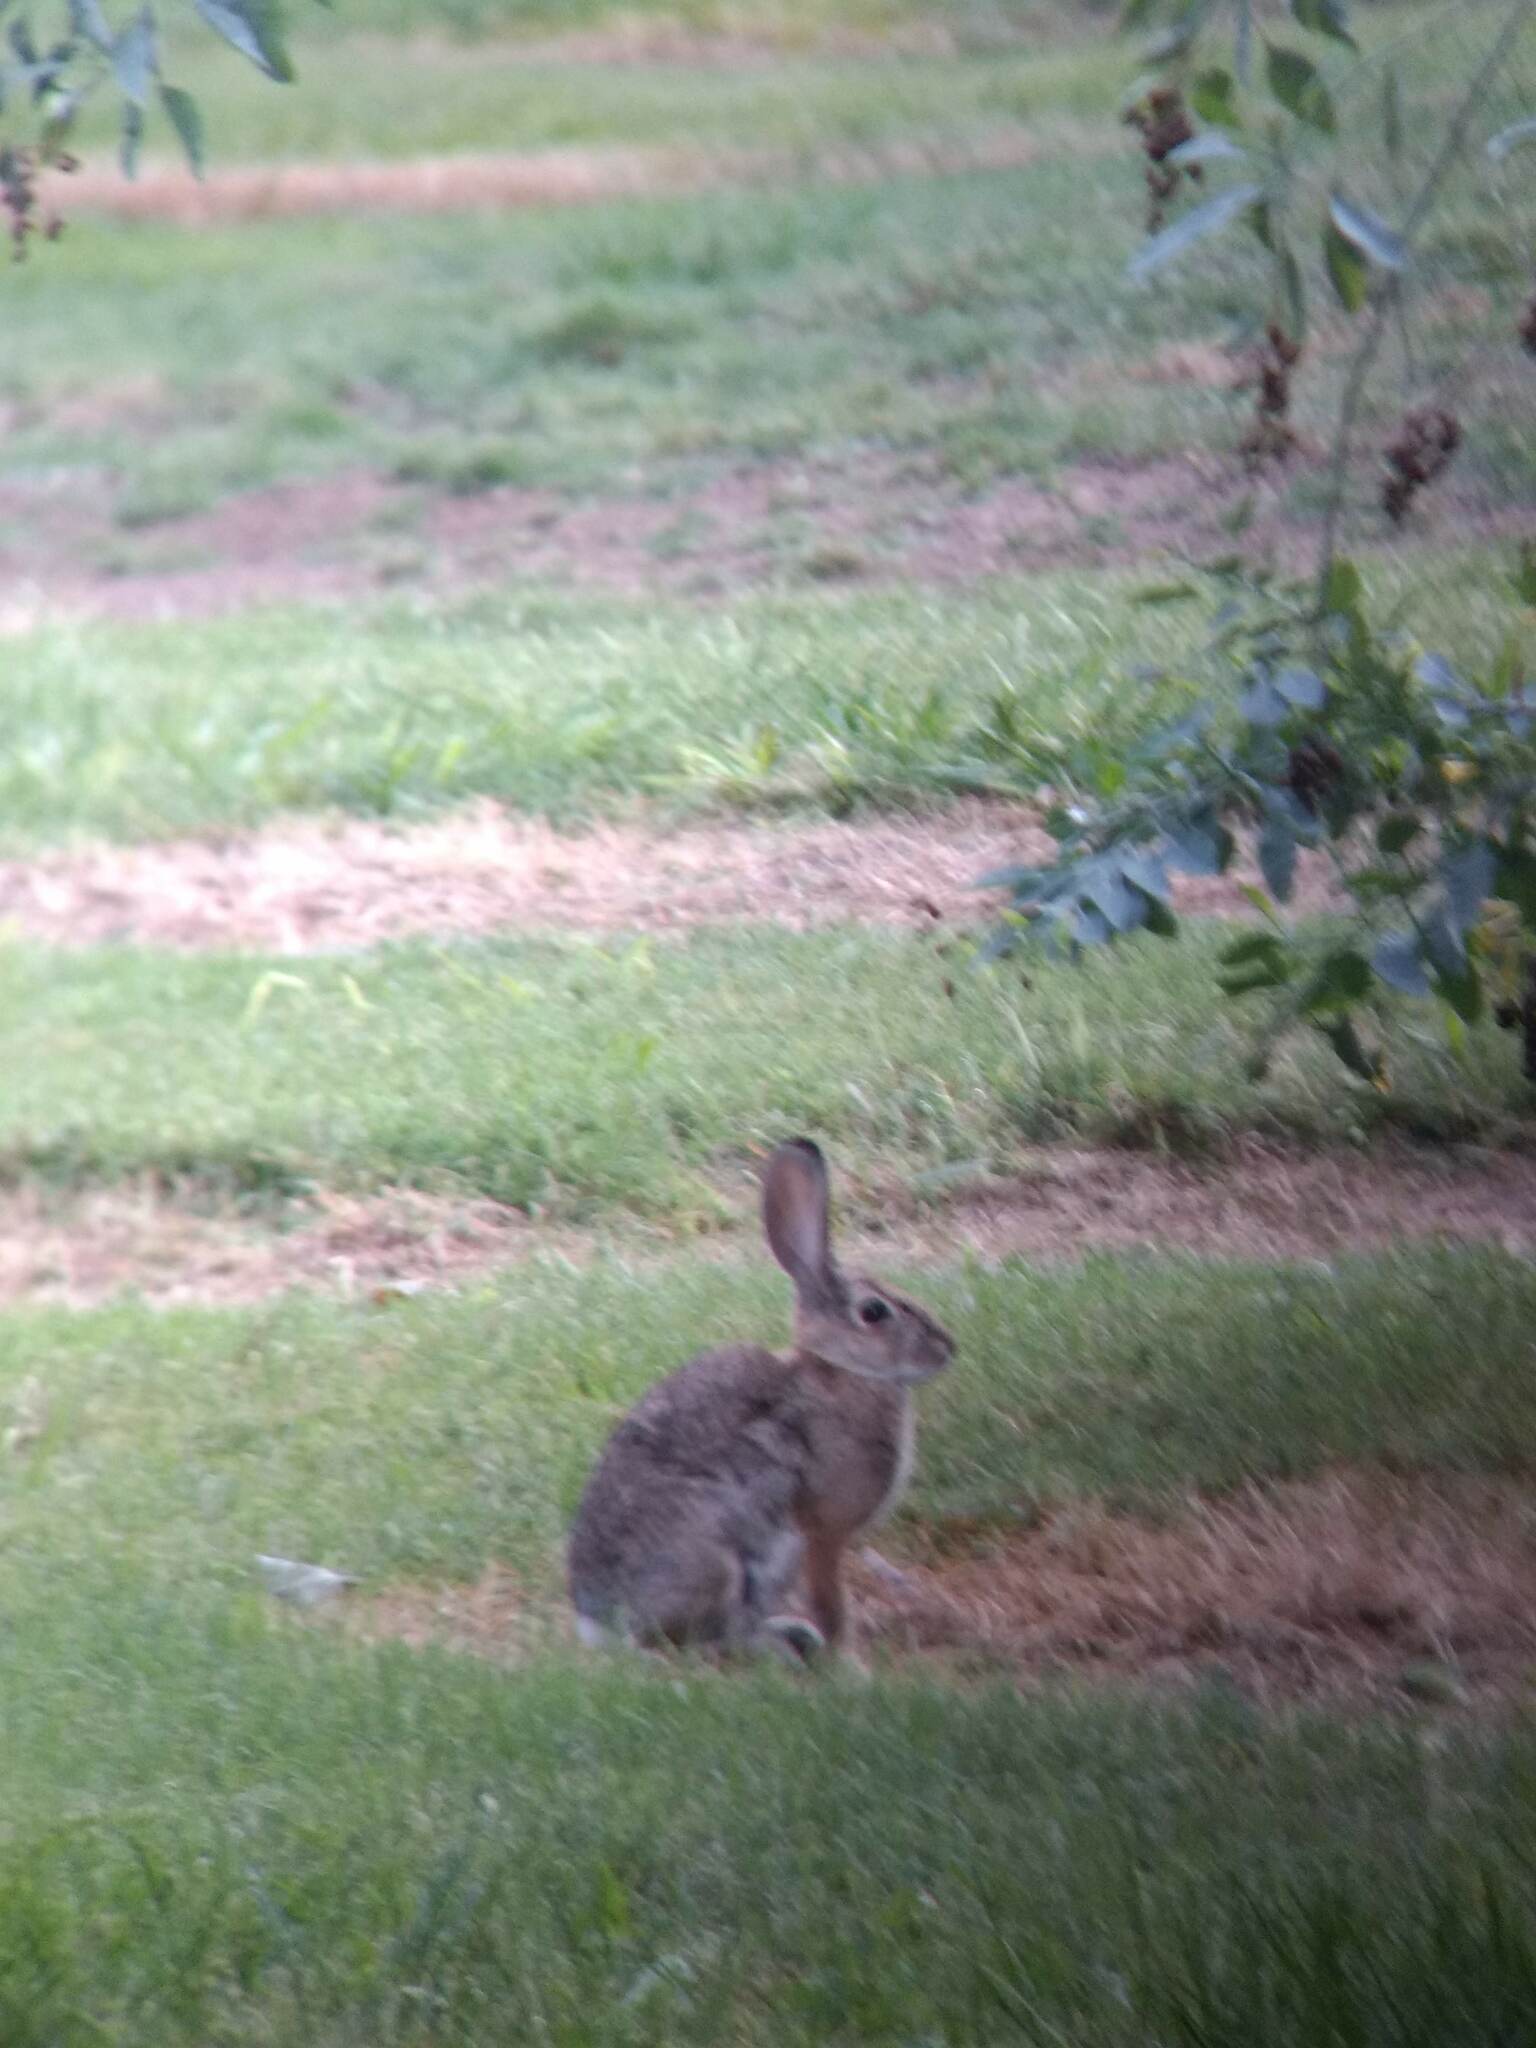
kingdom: Animalia
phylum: Chordata
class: Mammalia
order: Lagomorpha
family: Leporidae
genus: Sylvilagus
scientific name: Sylvilagus audubonii
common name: Desert cottontail
